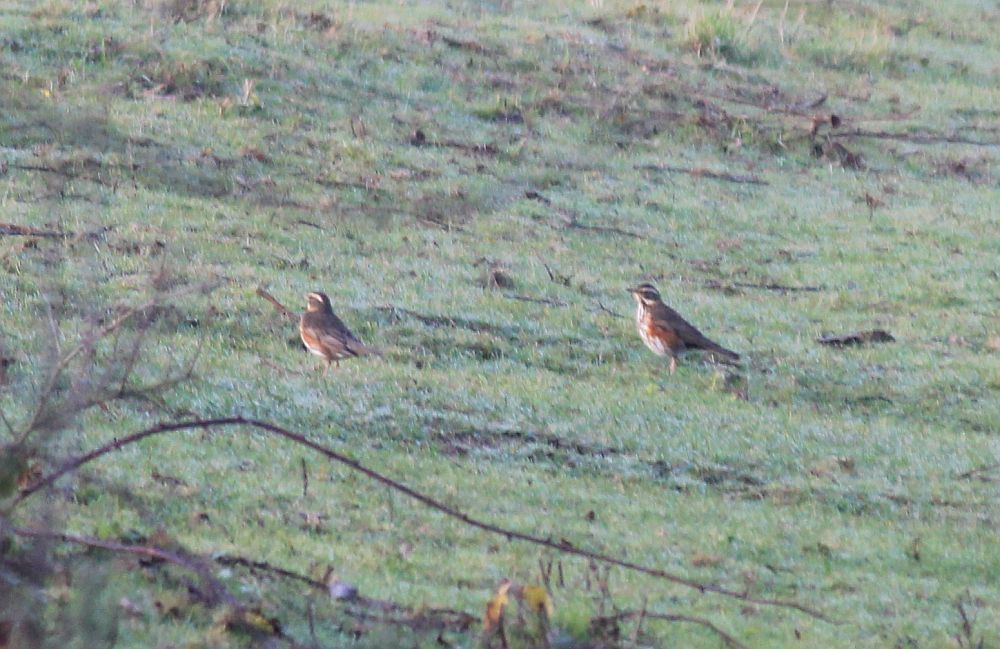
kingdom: Animalia
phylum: Chordata
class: Aves
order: Passeriformes
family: Turdidae
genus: Turdus
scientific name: Turdus iliacus
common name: Redwing
